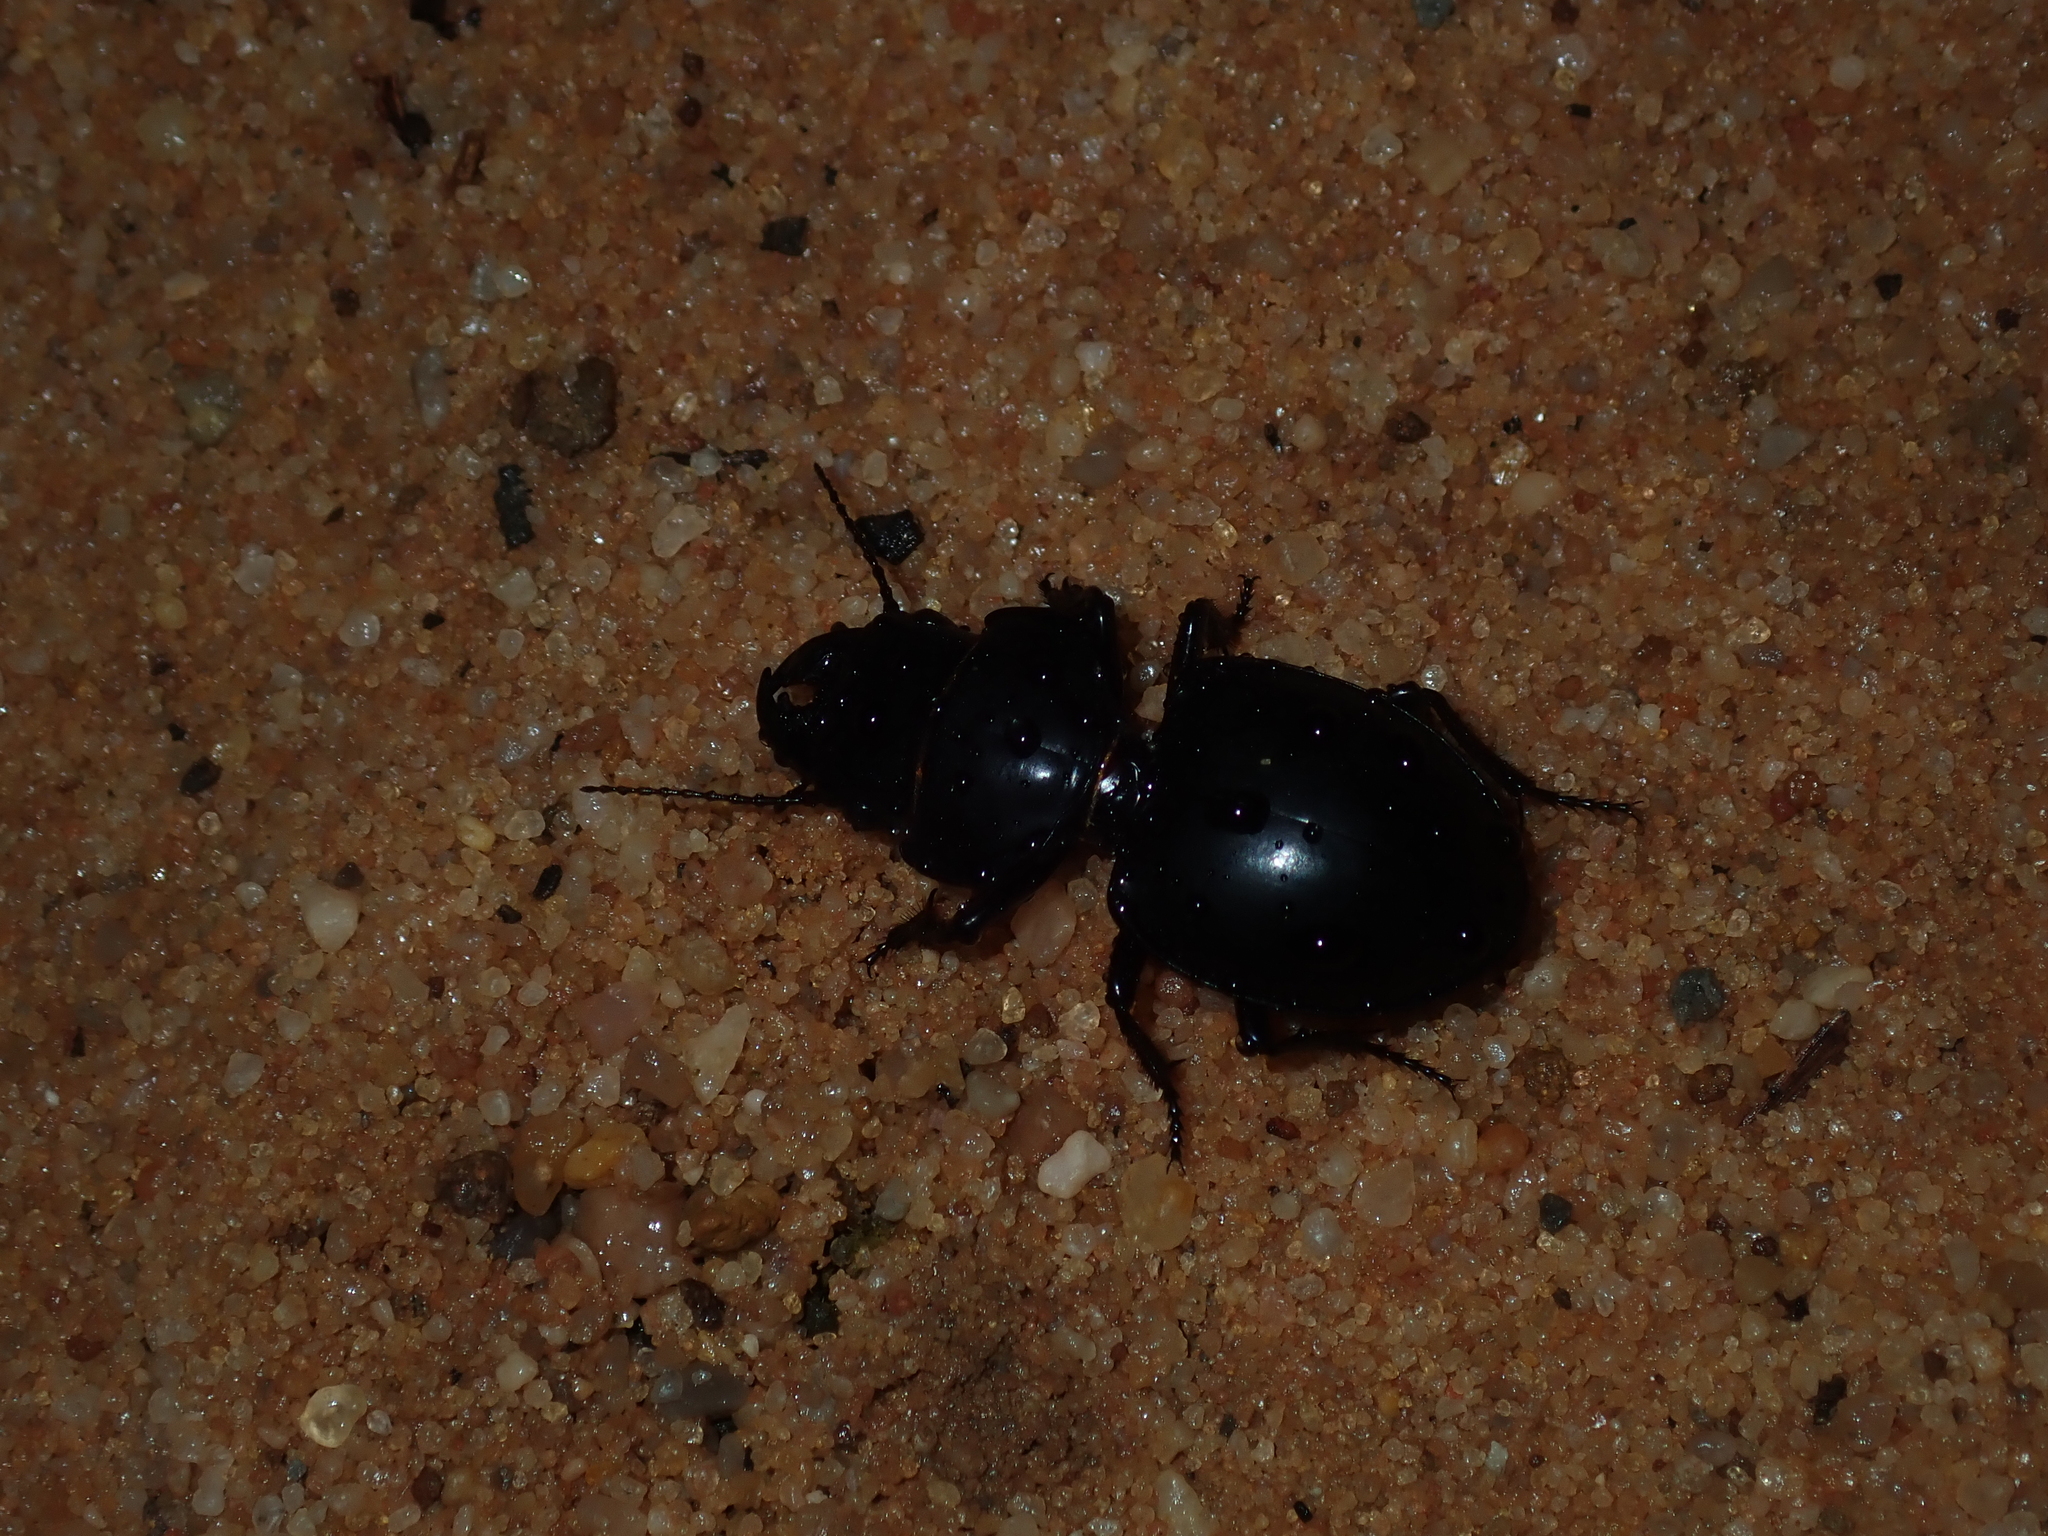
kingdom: Animalia
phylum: Arthropoda
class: Insecta
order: Coleoptera
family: Carabidae
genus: Euryscaphus
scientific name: Euryscaphus obesus
